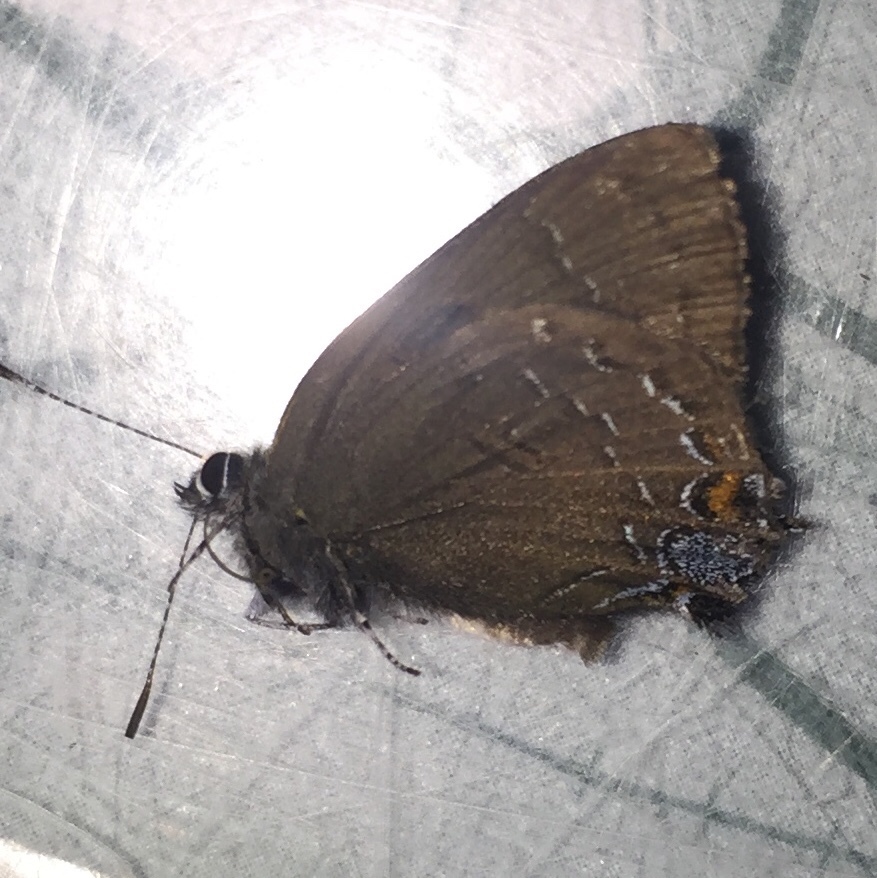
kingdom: Animalia
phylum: Arthropoda
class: Insecta
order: Lepidoptera
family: Lycaenidae
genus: Satyrium
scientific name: Satyrium calanus
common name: Banded hairstreak
